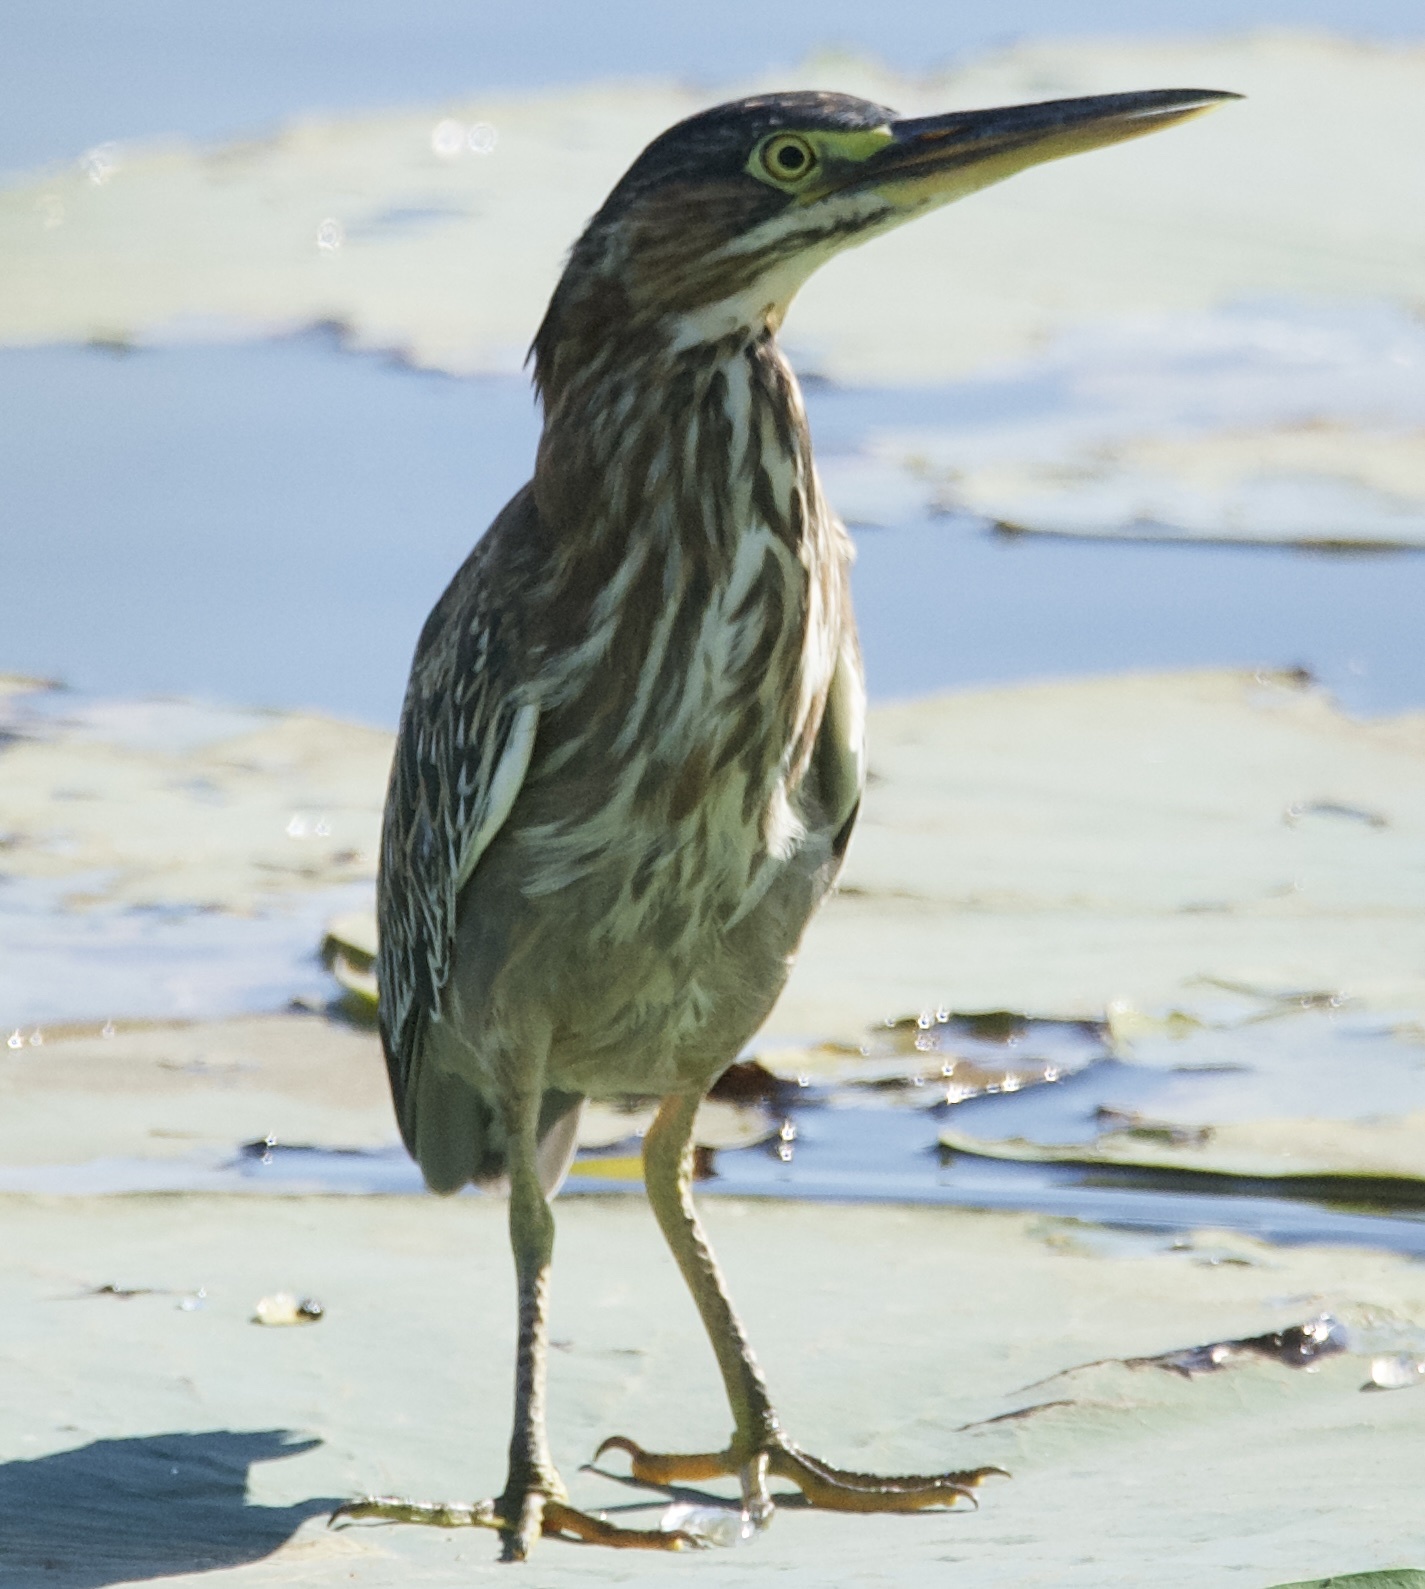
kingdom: Animalia
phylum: Chordata
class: Aves
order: Pelecaniformes
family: Ardeidae
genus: Butorides
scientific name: Butorides virescens
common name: Green heron
